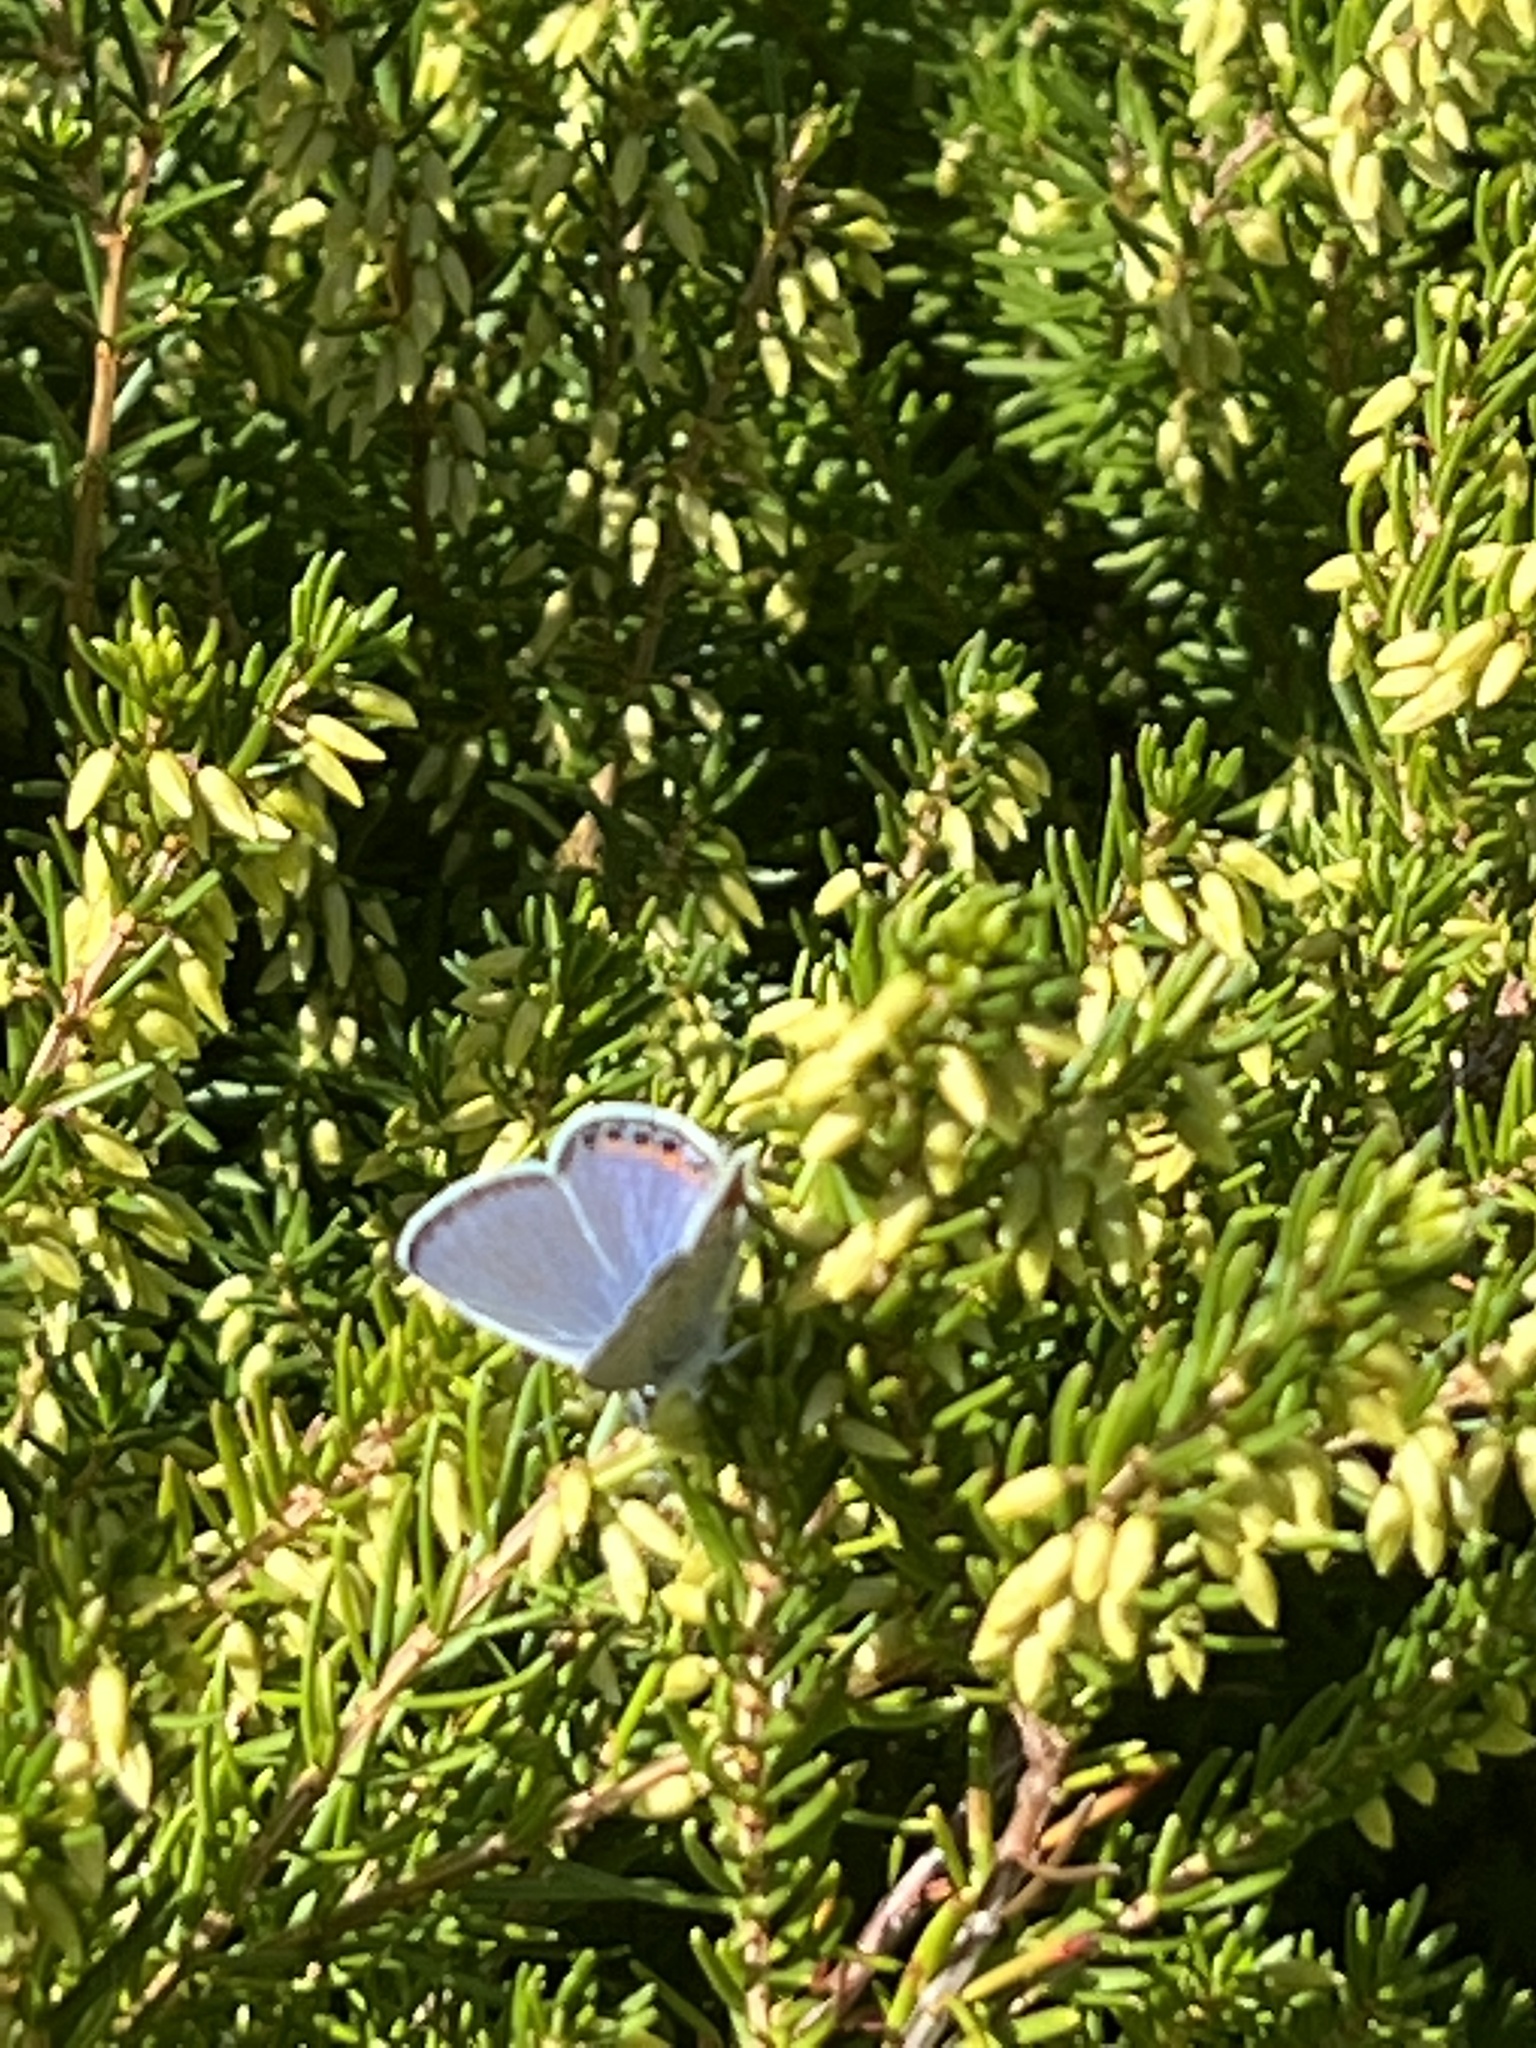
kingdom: Animalia
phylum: Arthropoda
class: Insecta
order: Lepidoptera
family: Lycaenidae
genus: Icaricia
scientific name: Icaricia acmon
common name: Acmon blue
